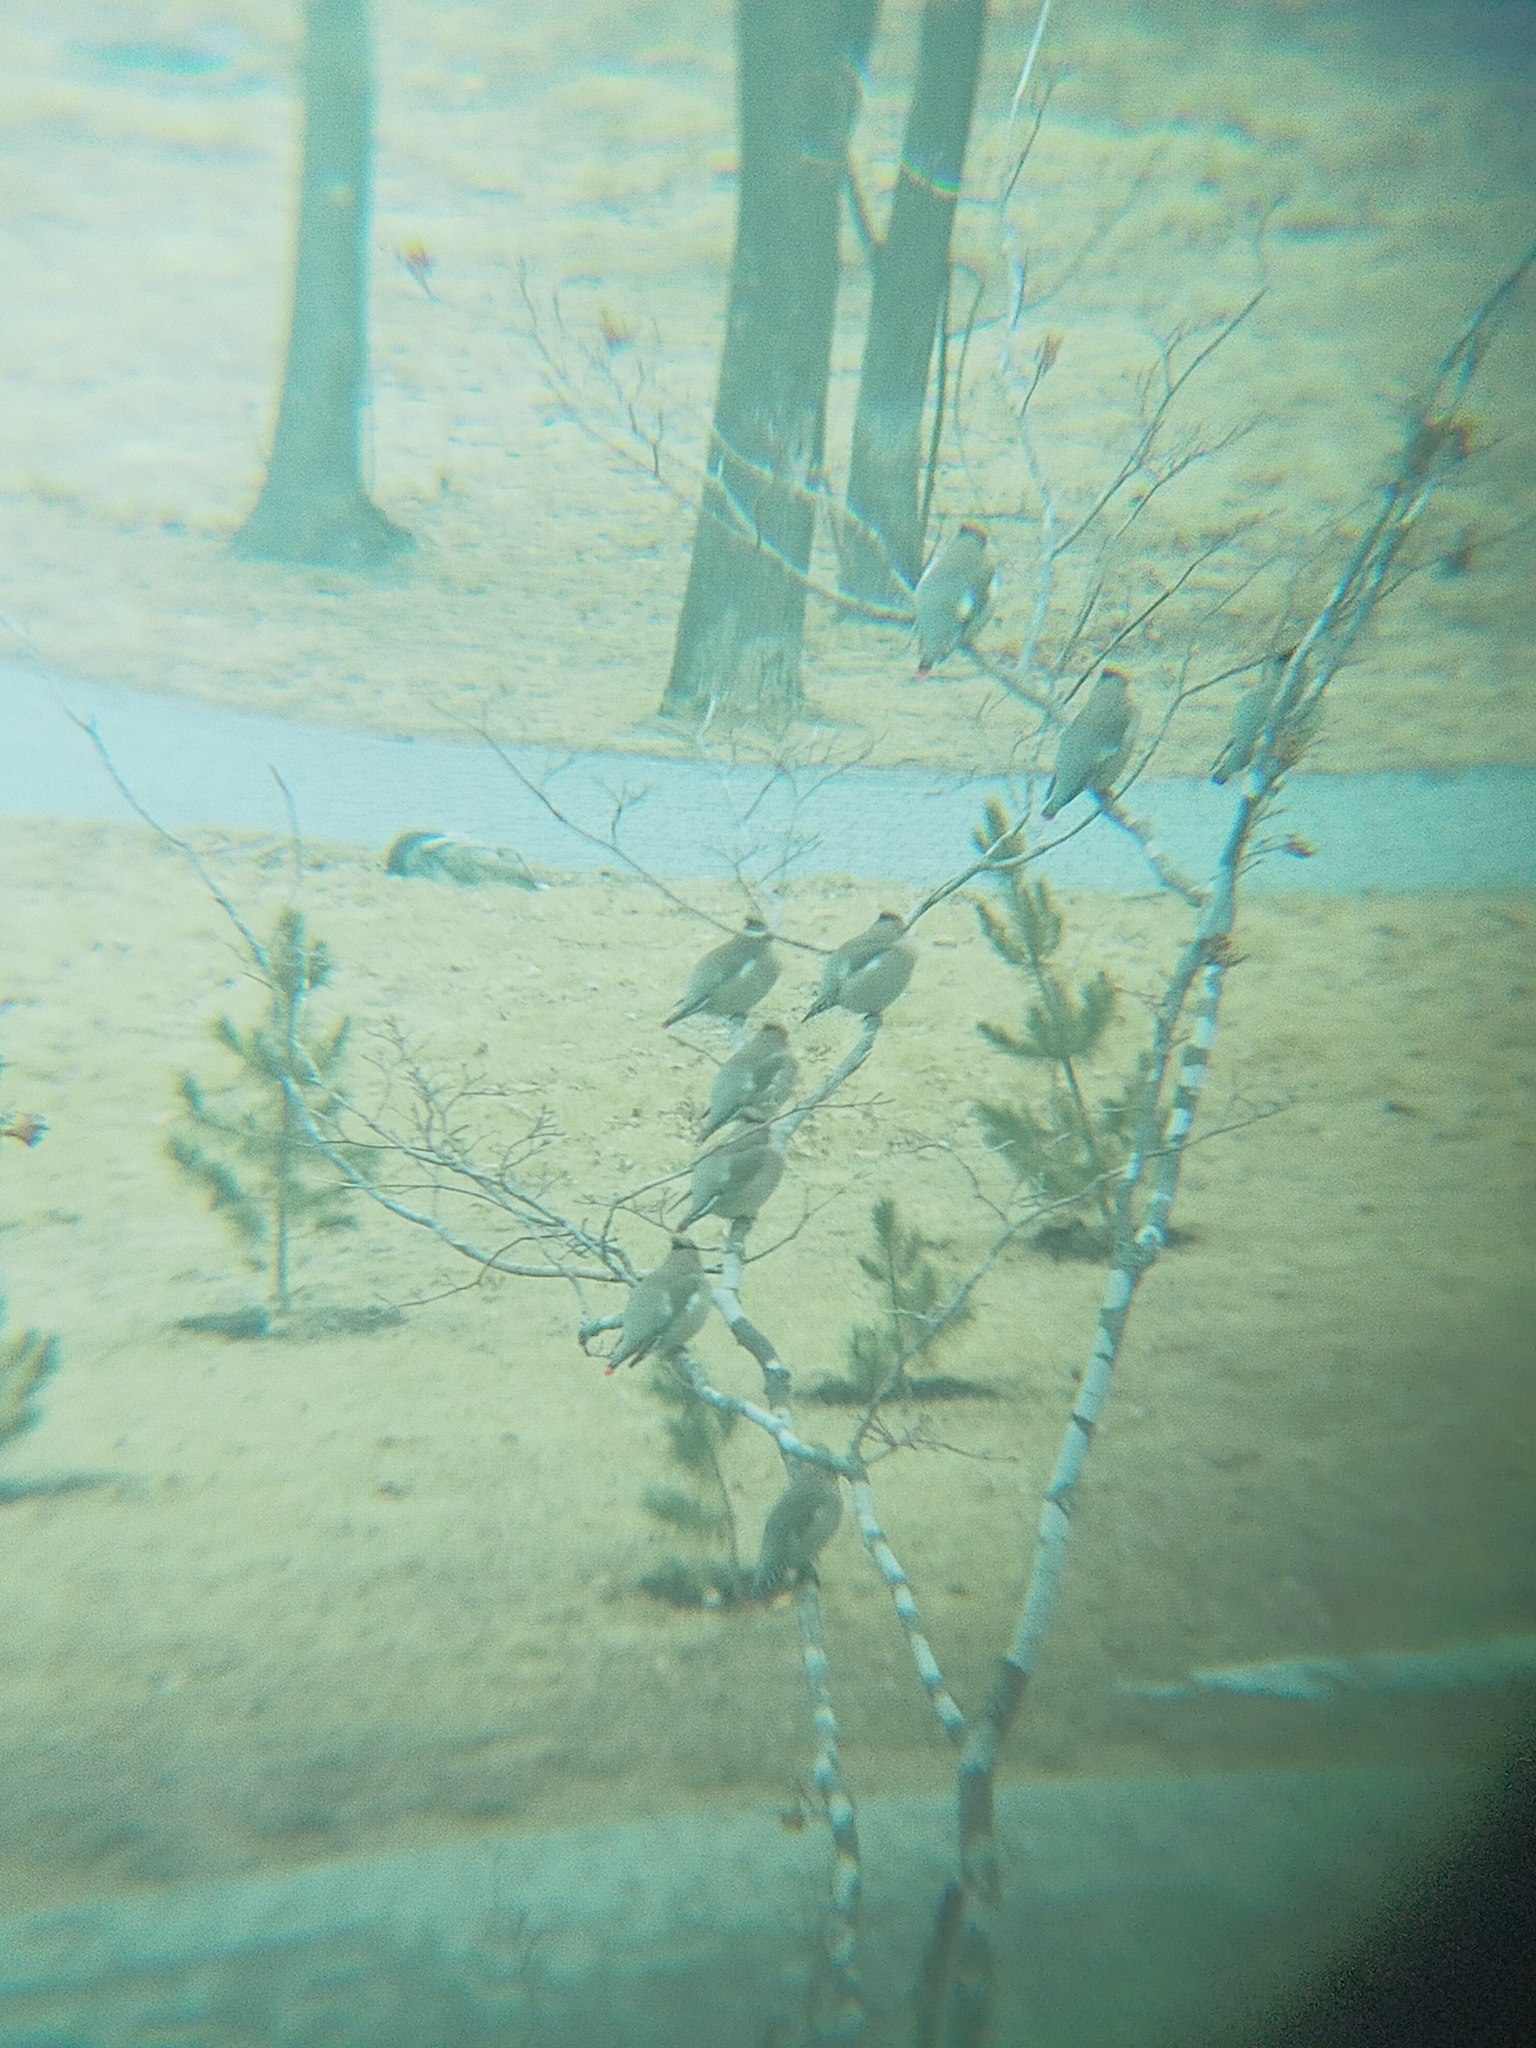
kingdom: Animalia
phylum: Chordata
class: Aves
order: Passeriformes
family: Bombycillidae
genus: Bombycilla
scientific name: Bombycilla japonica
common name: Japanese waxwing
